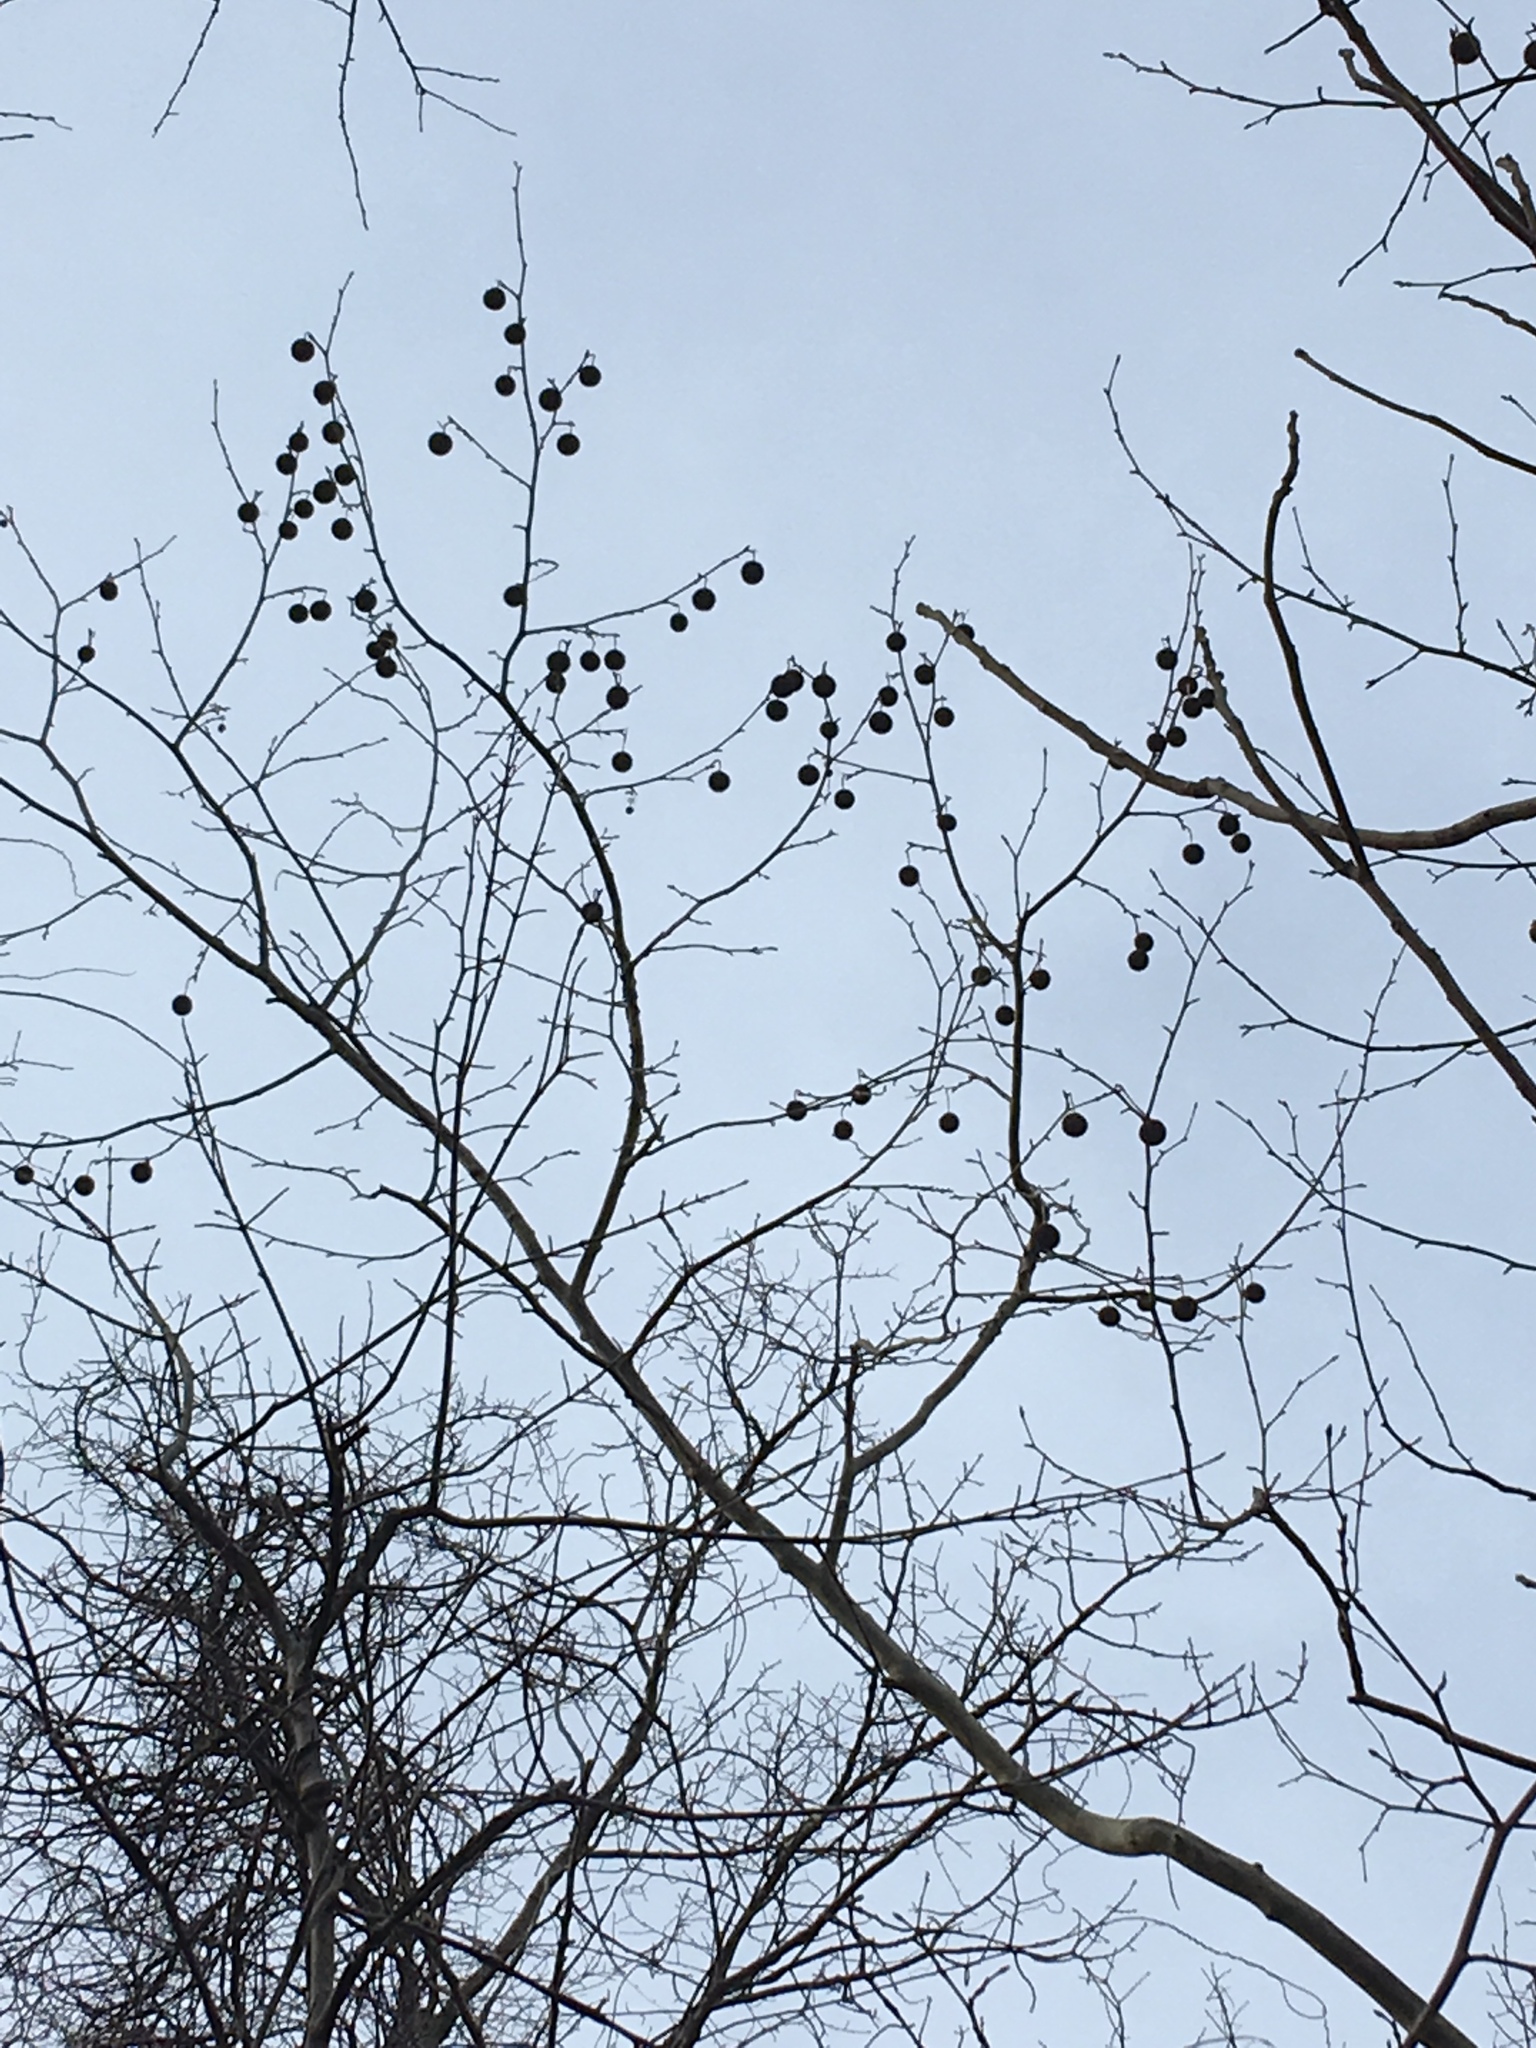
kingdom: Plantae
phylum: Tracheophyta
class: Magnoliopsida
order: Proteales
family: Platanaceae
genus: Platanus
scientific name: Platanus occidentalis
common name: American sycamore
